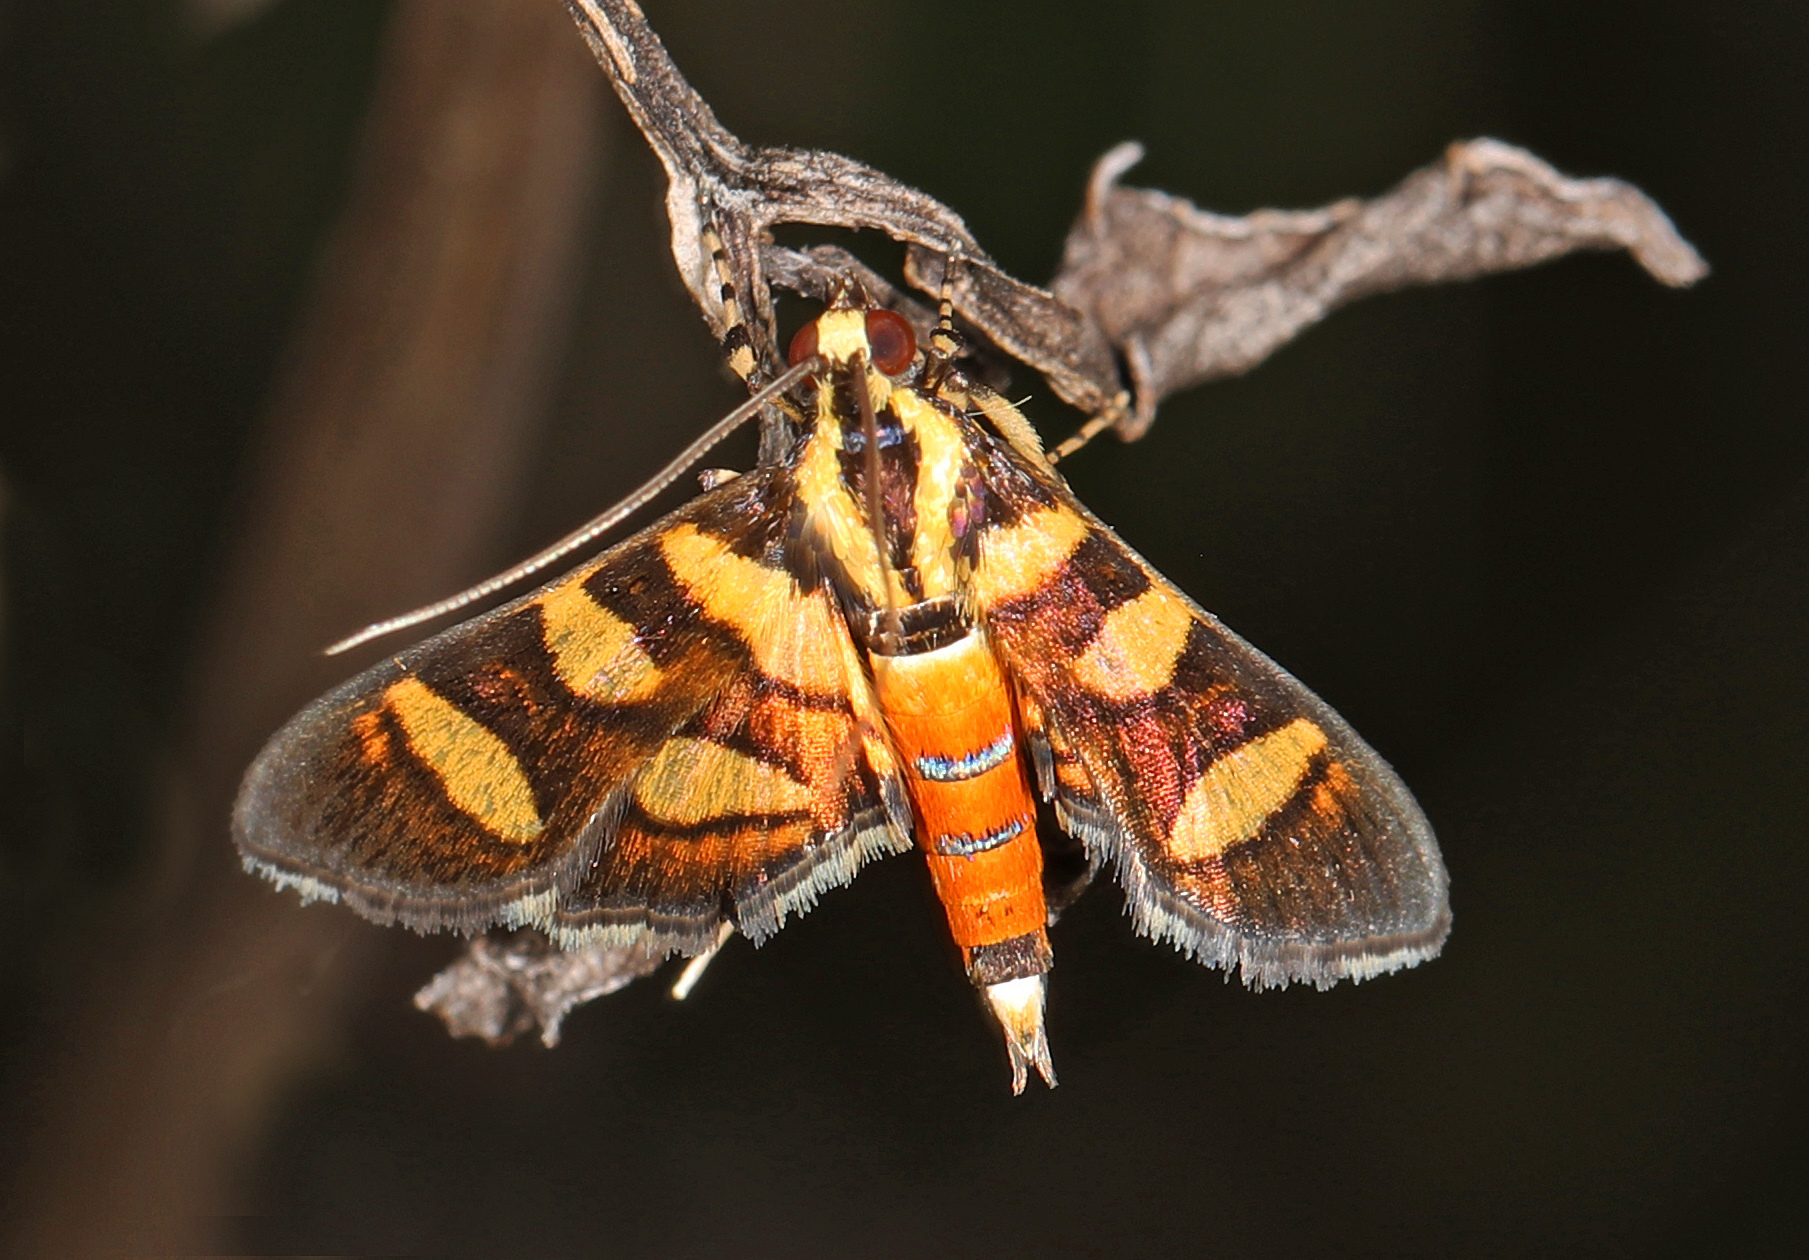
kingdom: Animalia
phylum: Arthropoda
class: Insecta
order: Lepidoptera
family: Crambidae
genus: Syngamia
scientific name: Syngamia florella
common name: Orange-spotted flower moth
